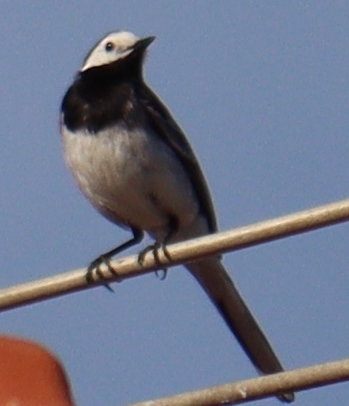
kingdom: Animalia
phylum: Chordata
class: Aves
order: Passeriformes
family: Motacillidae
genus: Motacilla
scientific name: Motacilla alba
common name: White wagtail
